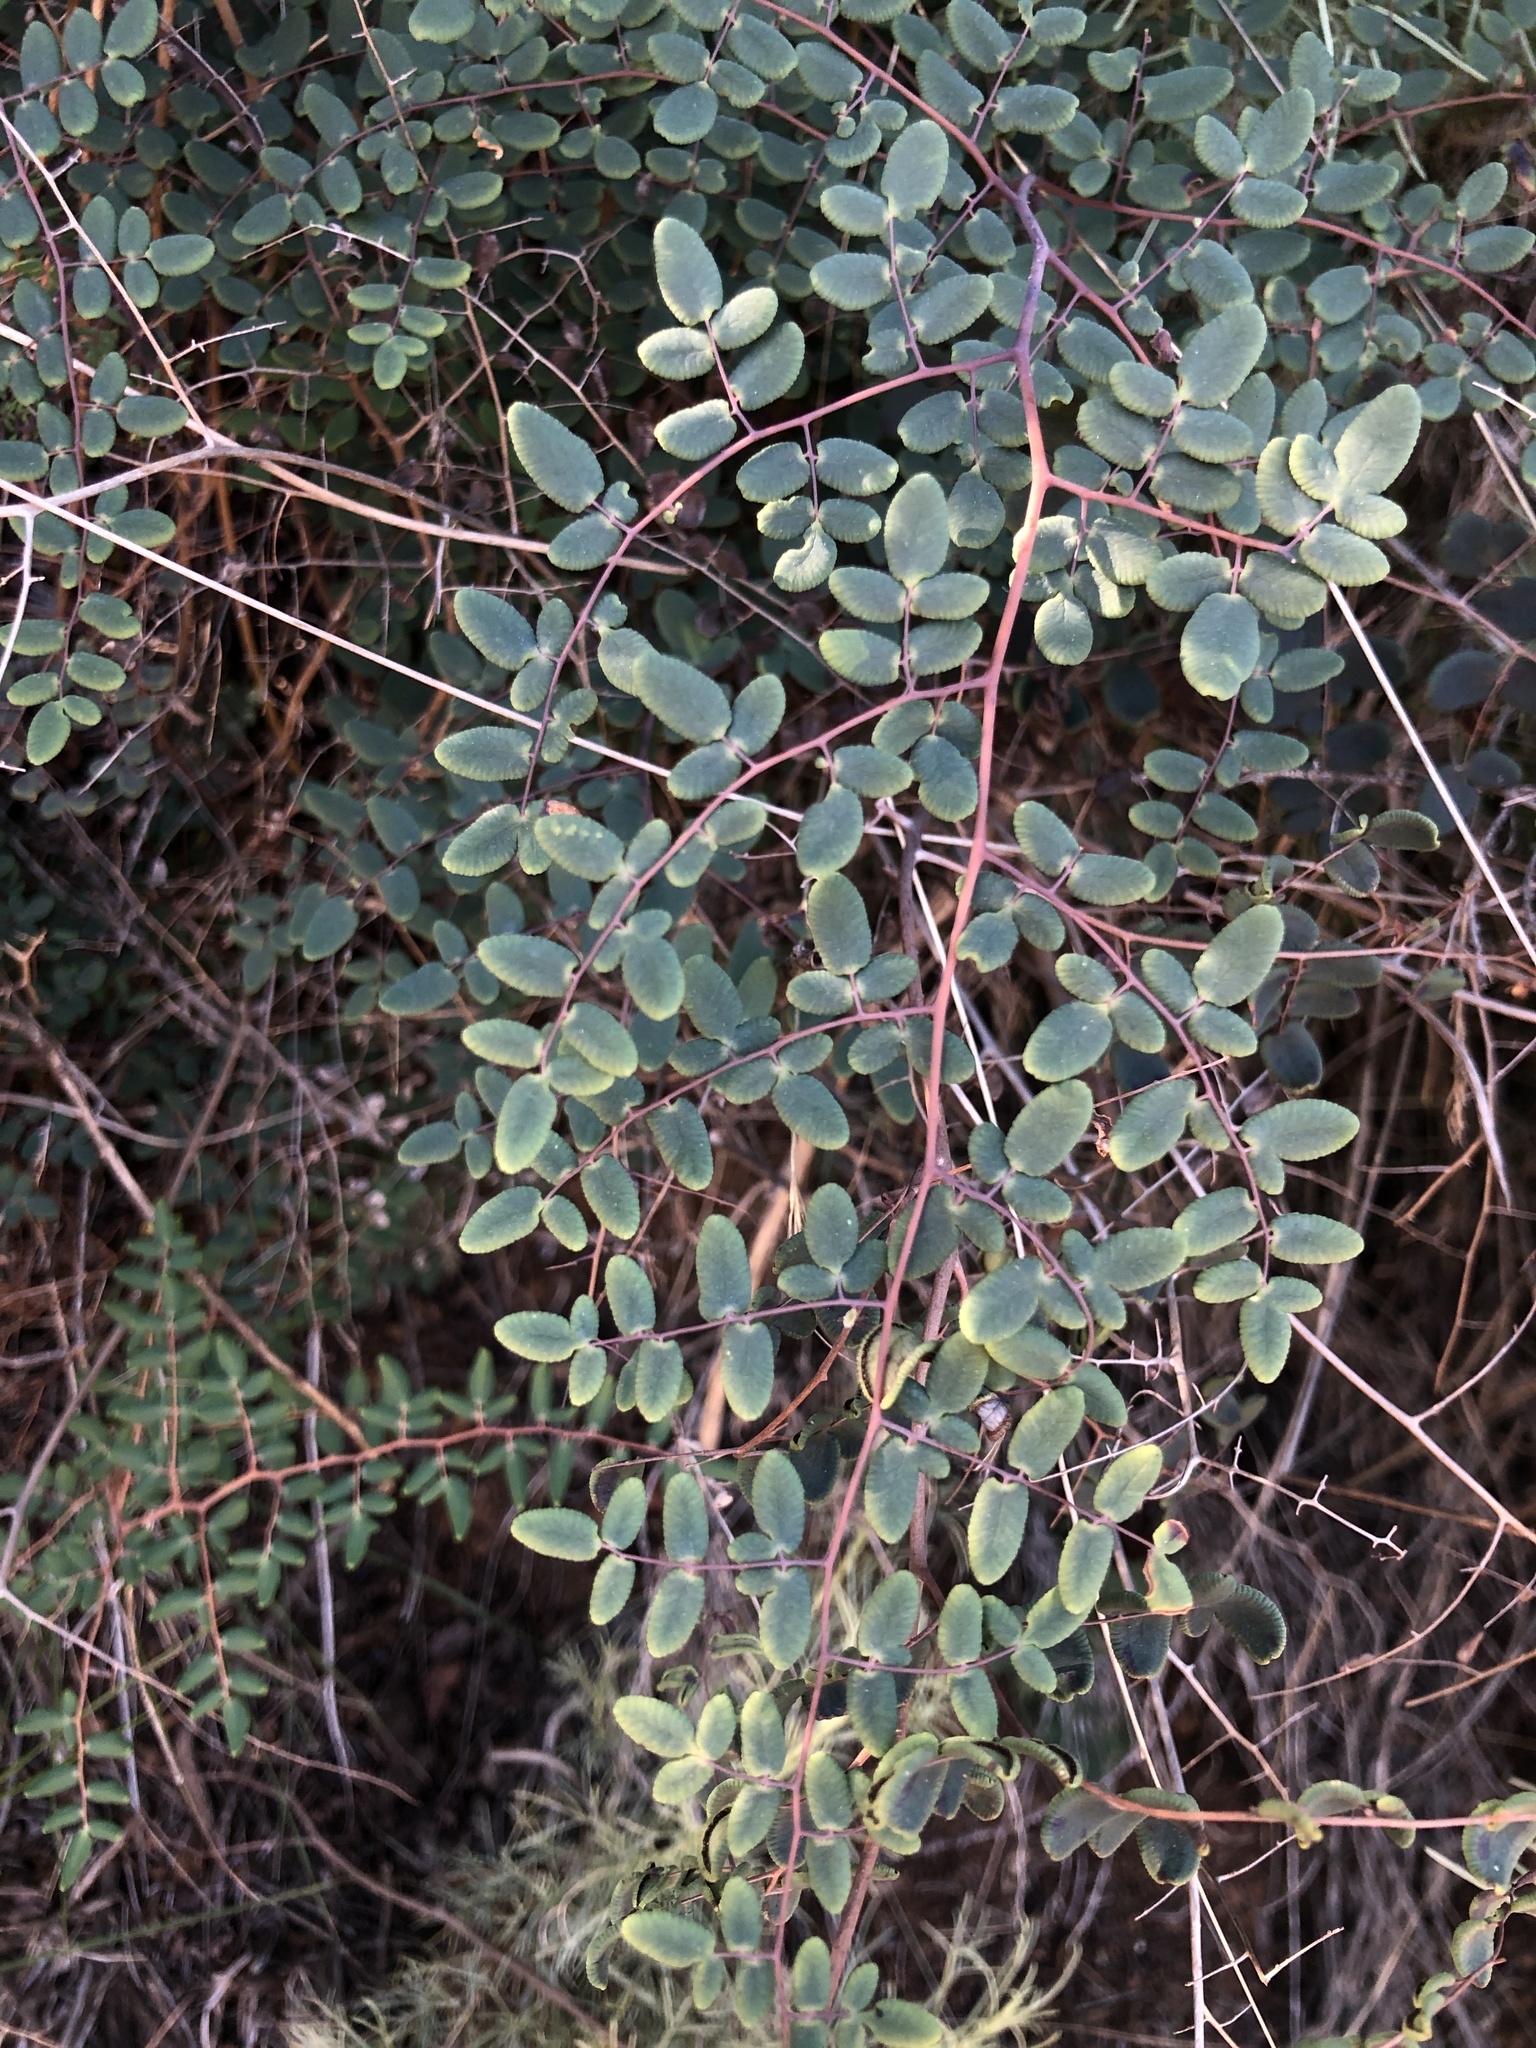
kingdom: Plantae
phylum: Tracheophyta
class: Polypodiopsida
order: Polypodiales
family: Pteridaceae
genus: Pellaea
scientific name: Pellaea andromedifolia
